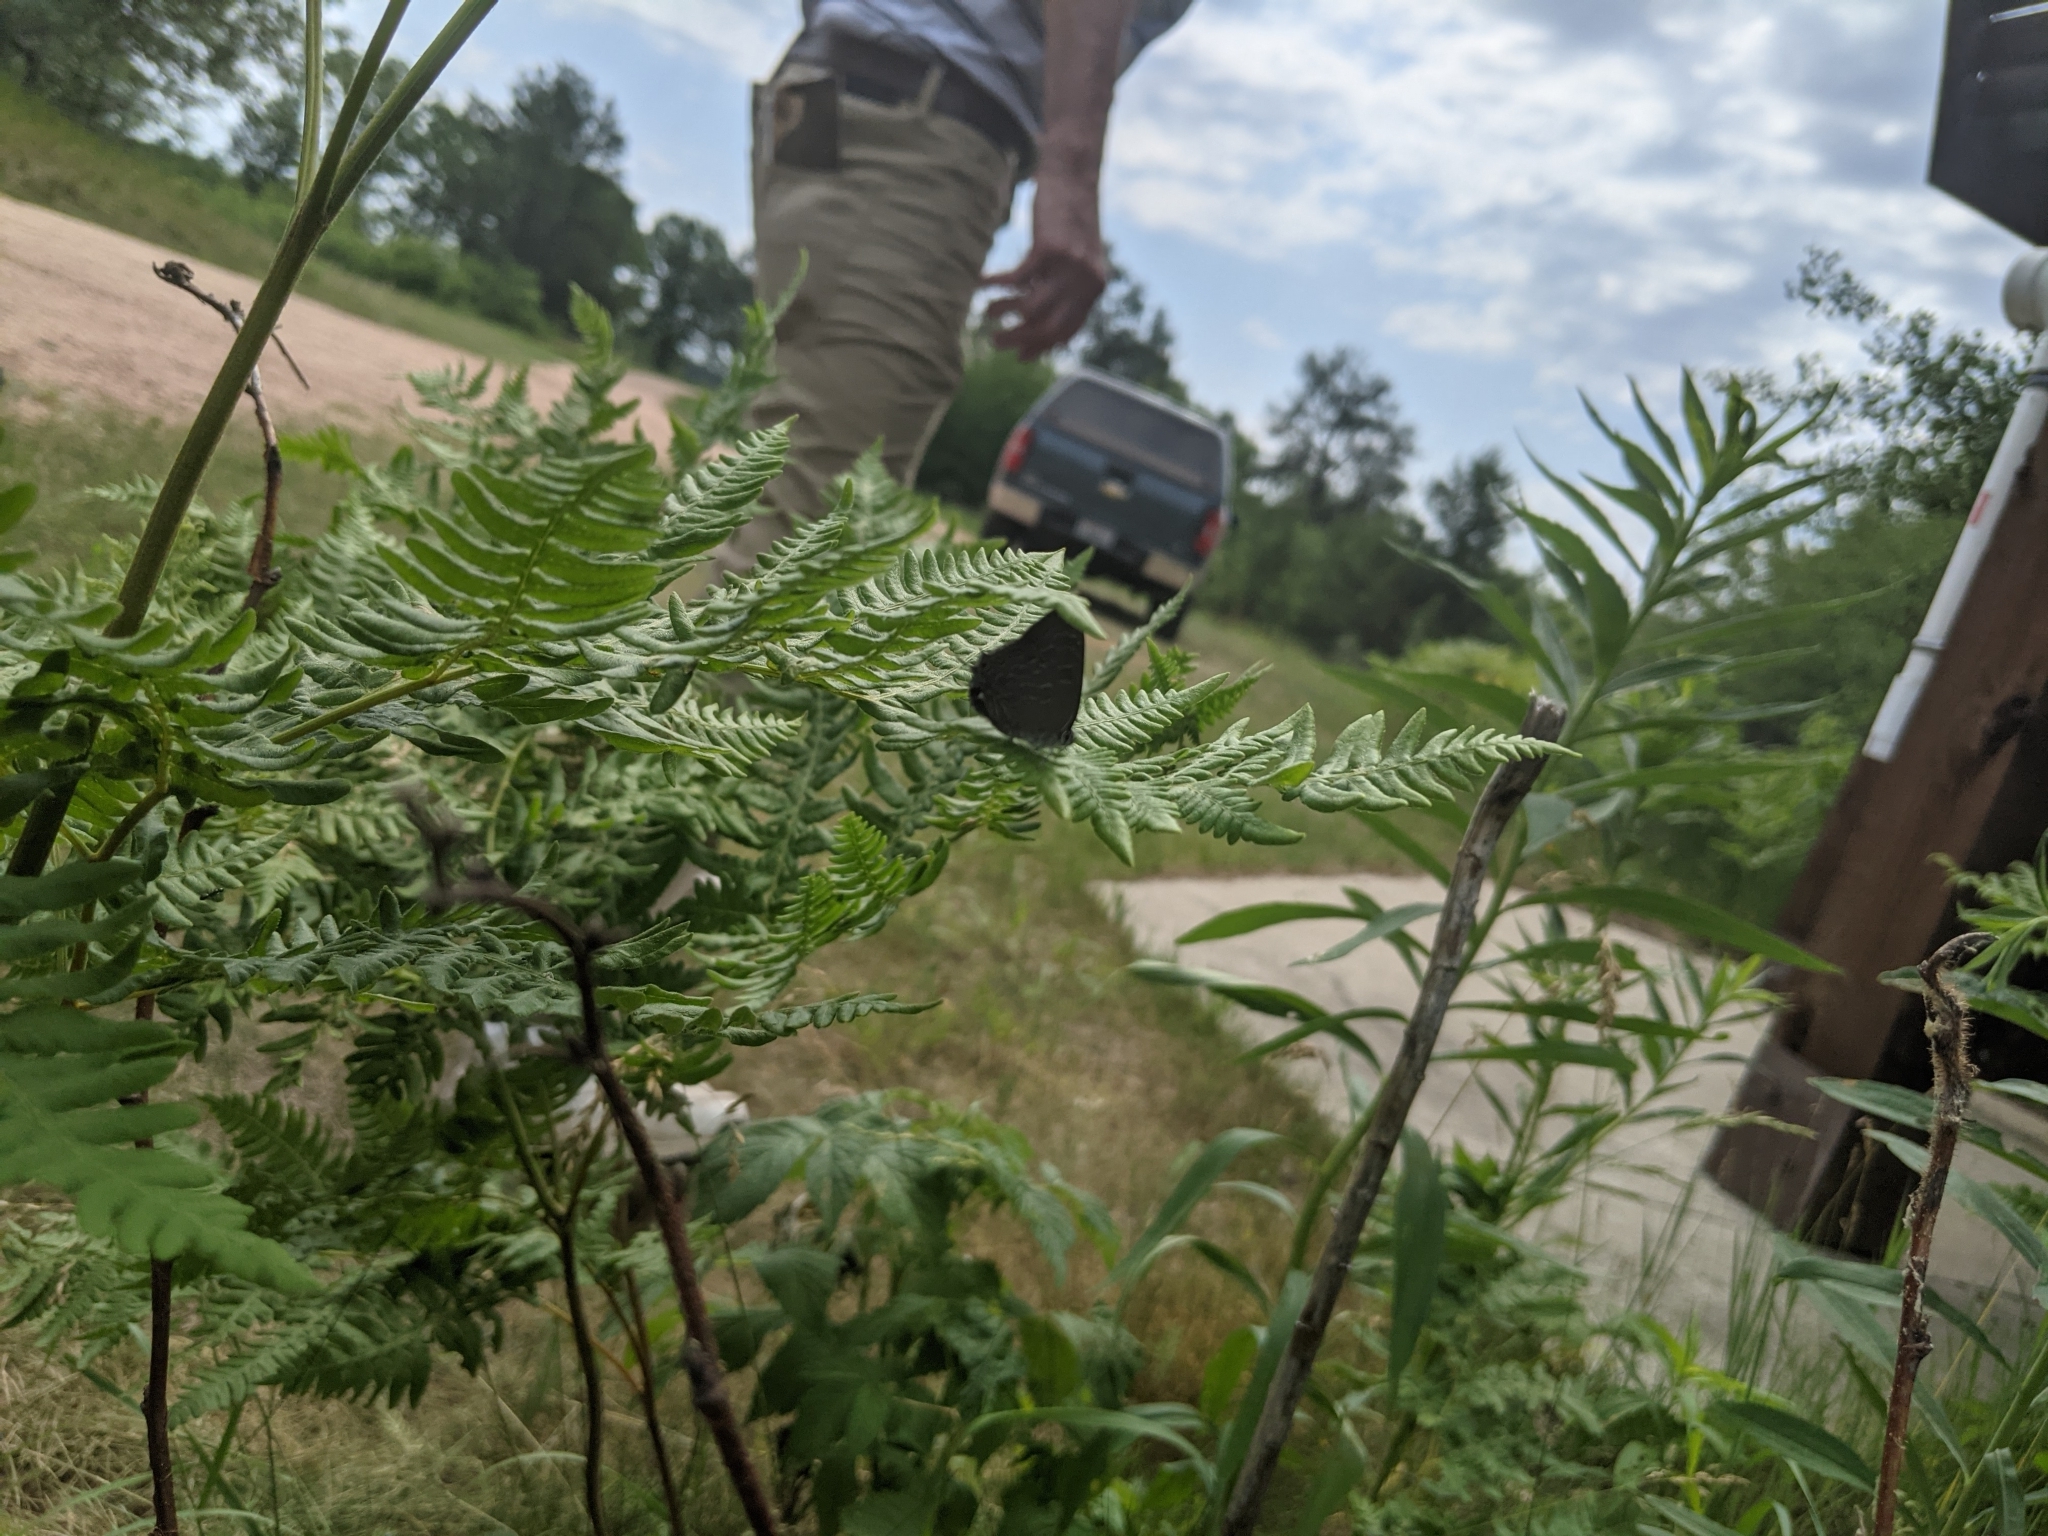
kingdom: Animalia
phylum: Arthropoda
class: Insecta
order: Lepidoptera
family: Lycaenidae
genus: Satyrium
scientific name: Satyrium liparops
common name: Striped hairstreak
